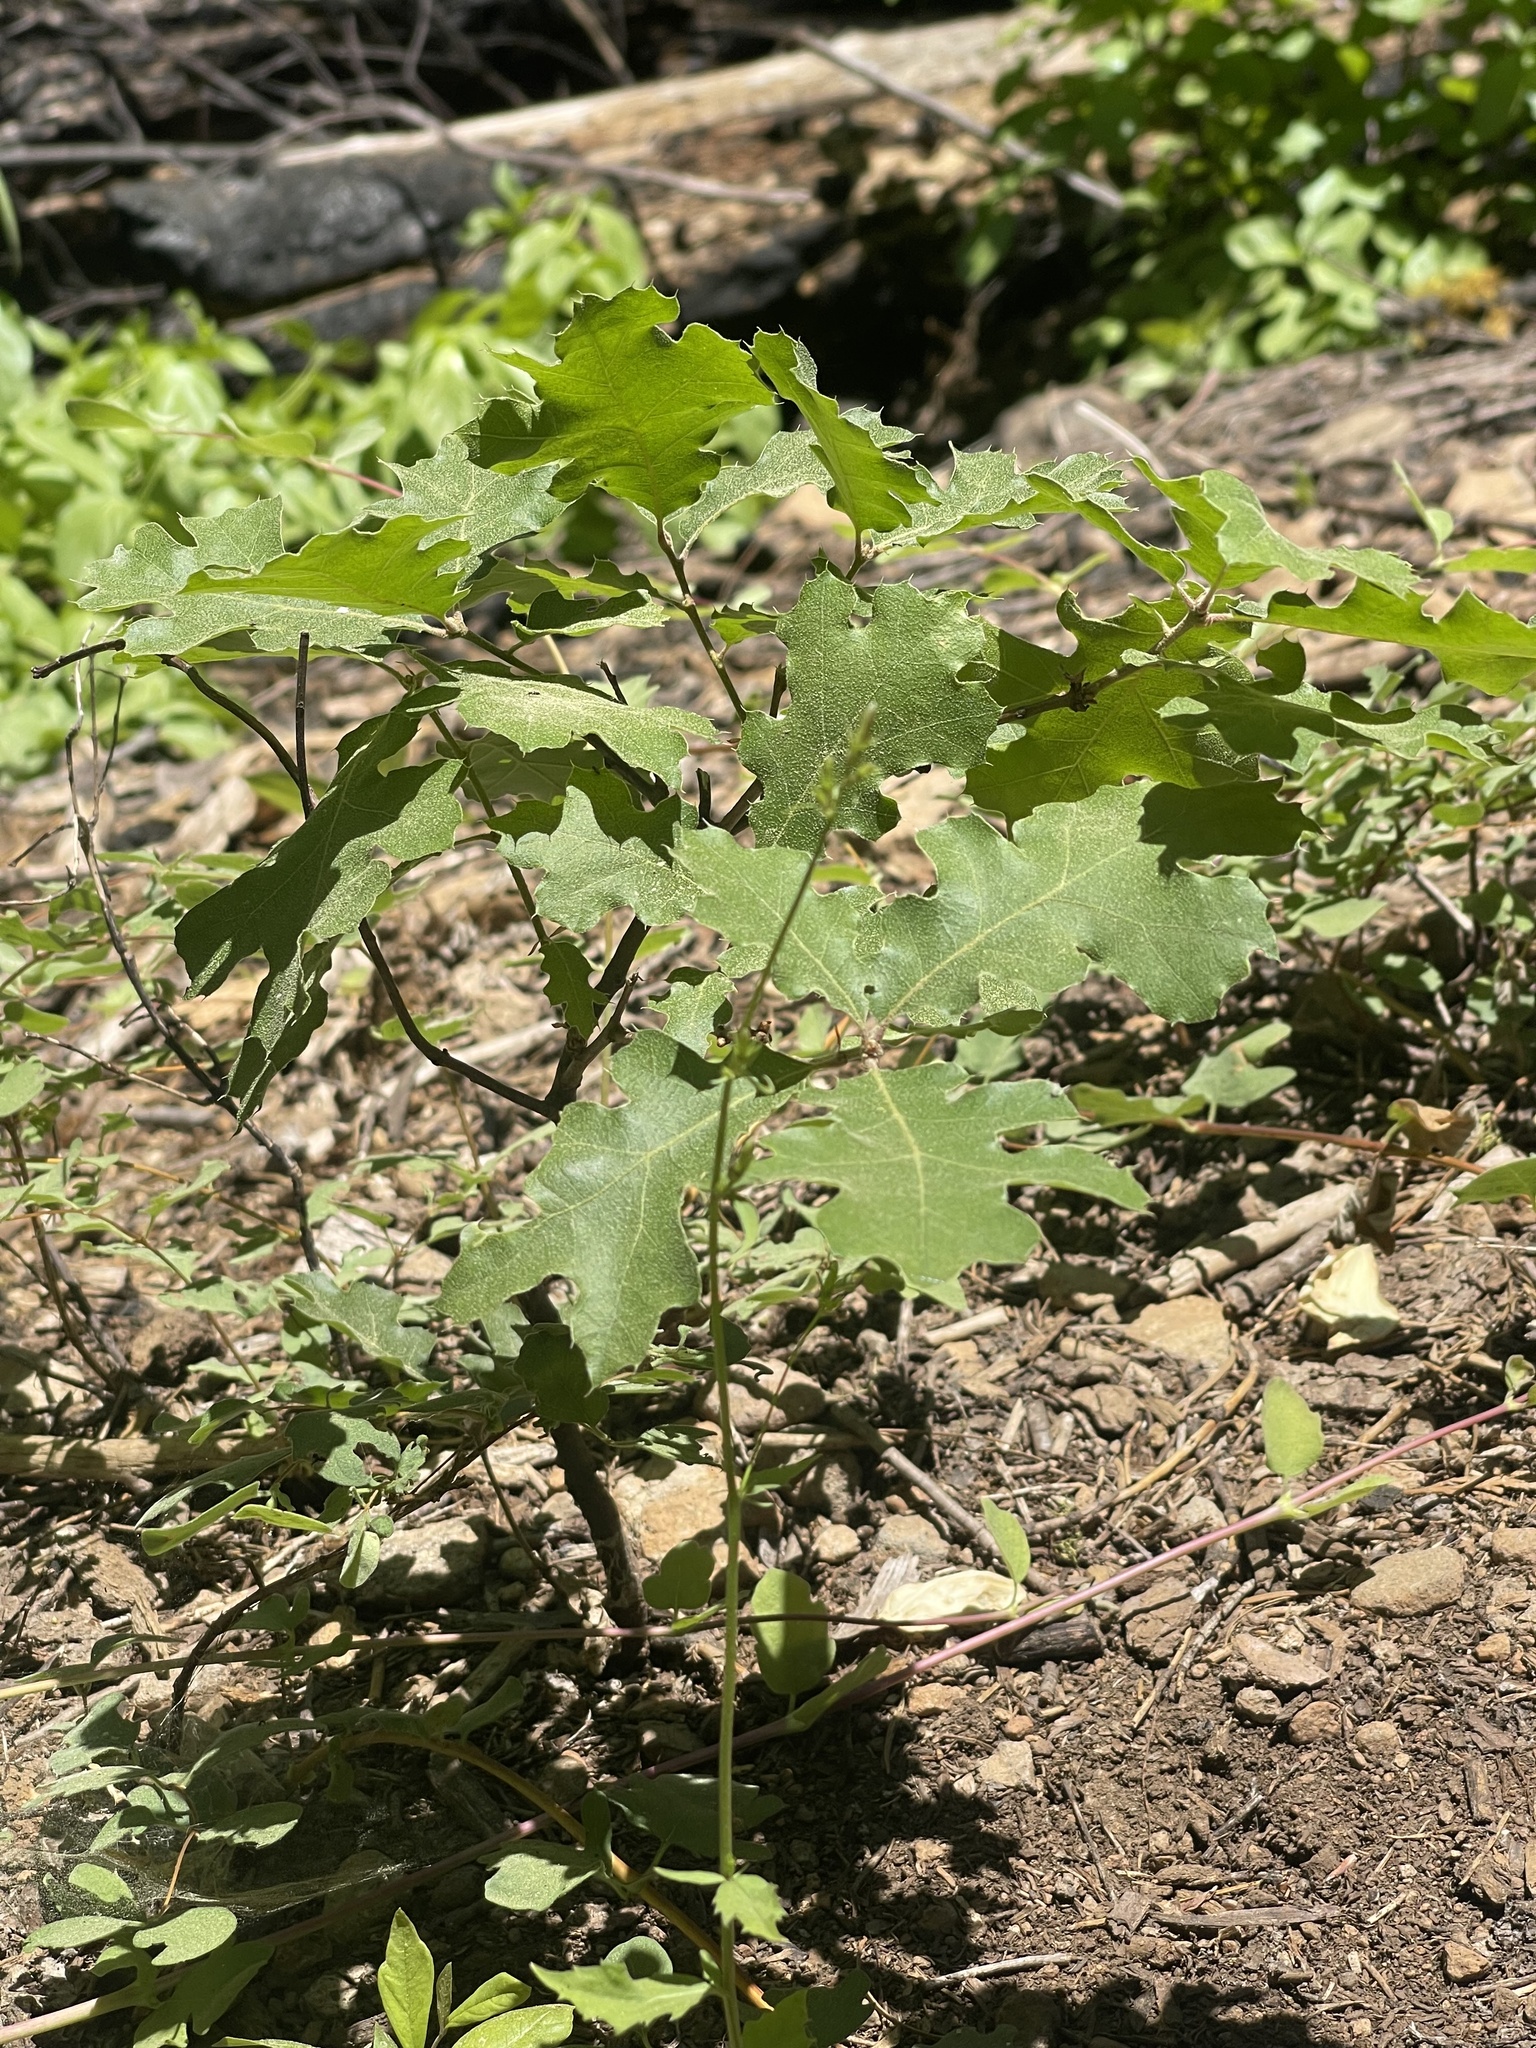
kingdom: Plantae
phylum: Tracheophyta
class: Magnoliopsida
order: Fagales
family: Fagaceae
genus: Quercus
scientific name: Quercus kelloggii
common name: California black oak
